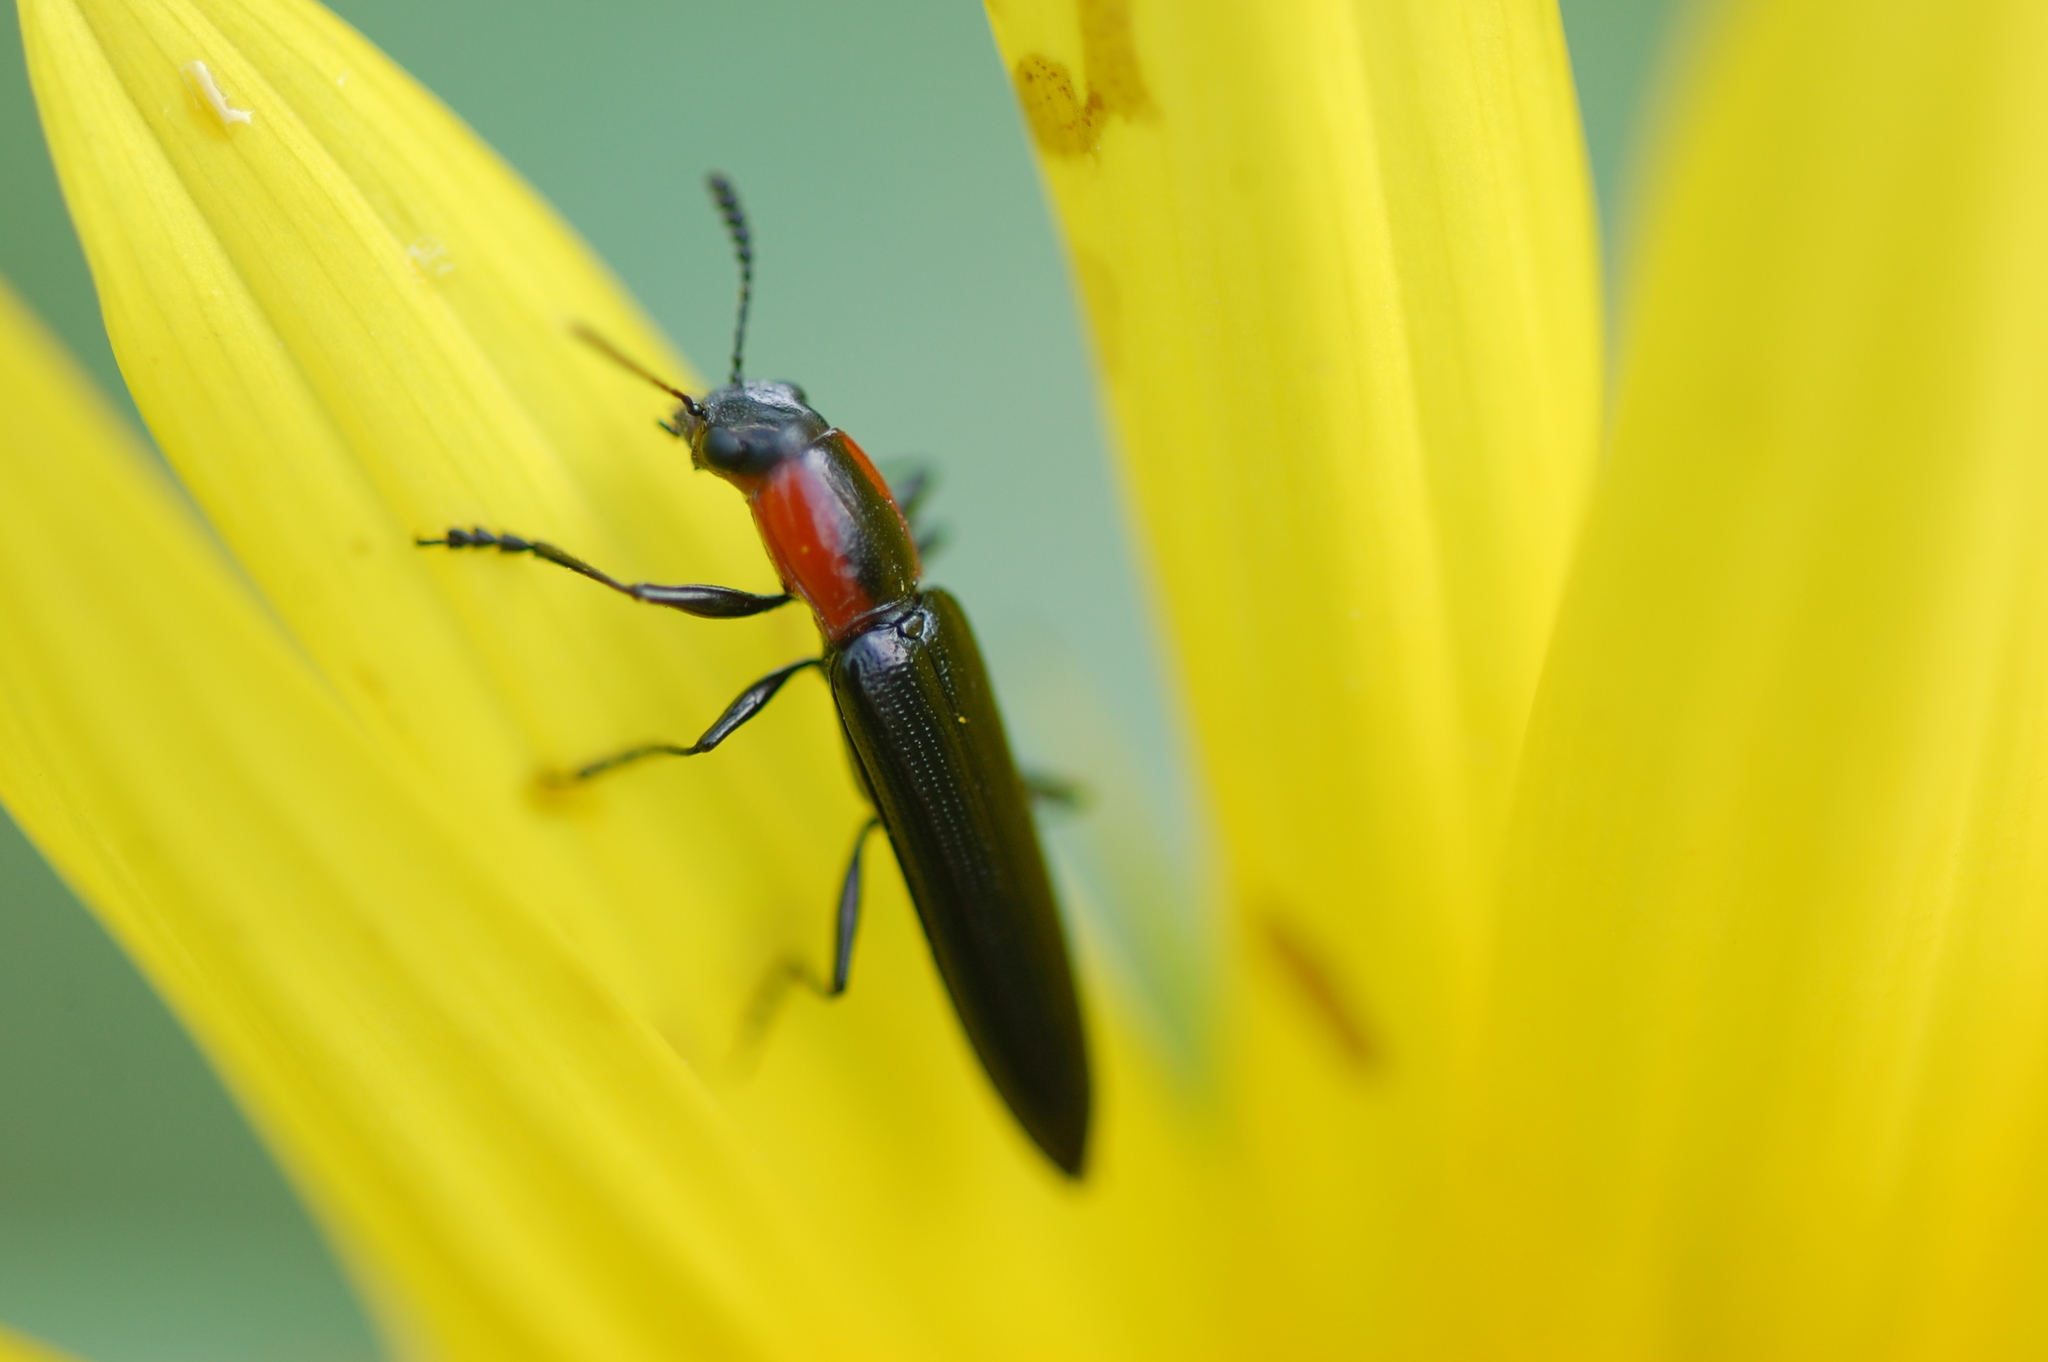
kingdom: Animalia
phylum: Arthropoda
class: Insecta
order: Coleoptera
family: Erotylidae
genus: Acropteroxys
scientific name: Acropteroxys gracilis
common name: Slender lizard beetle
